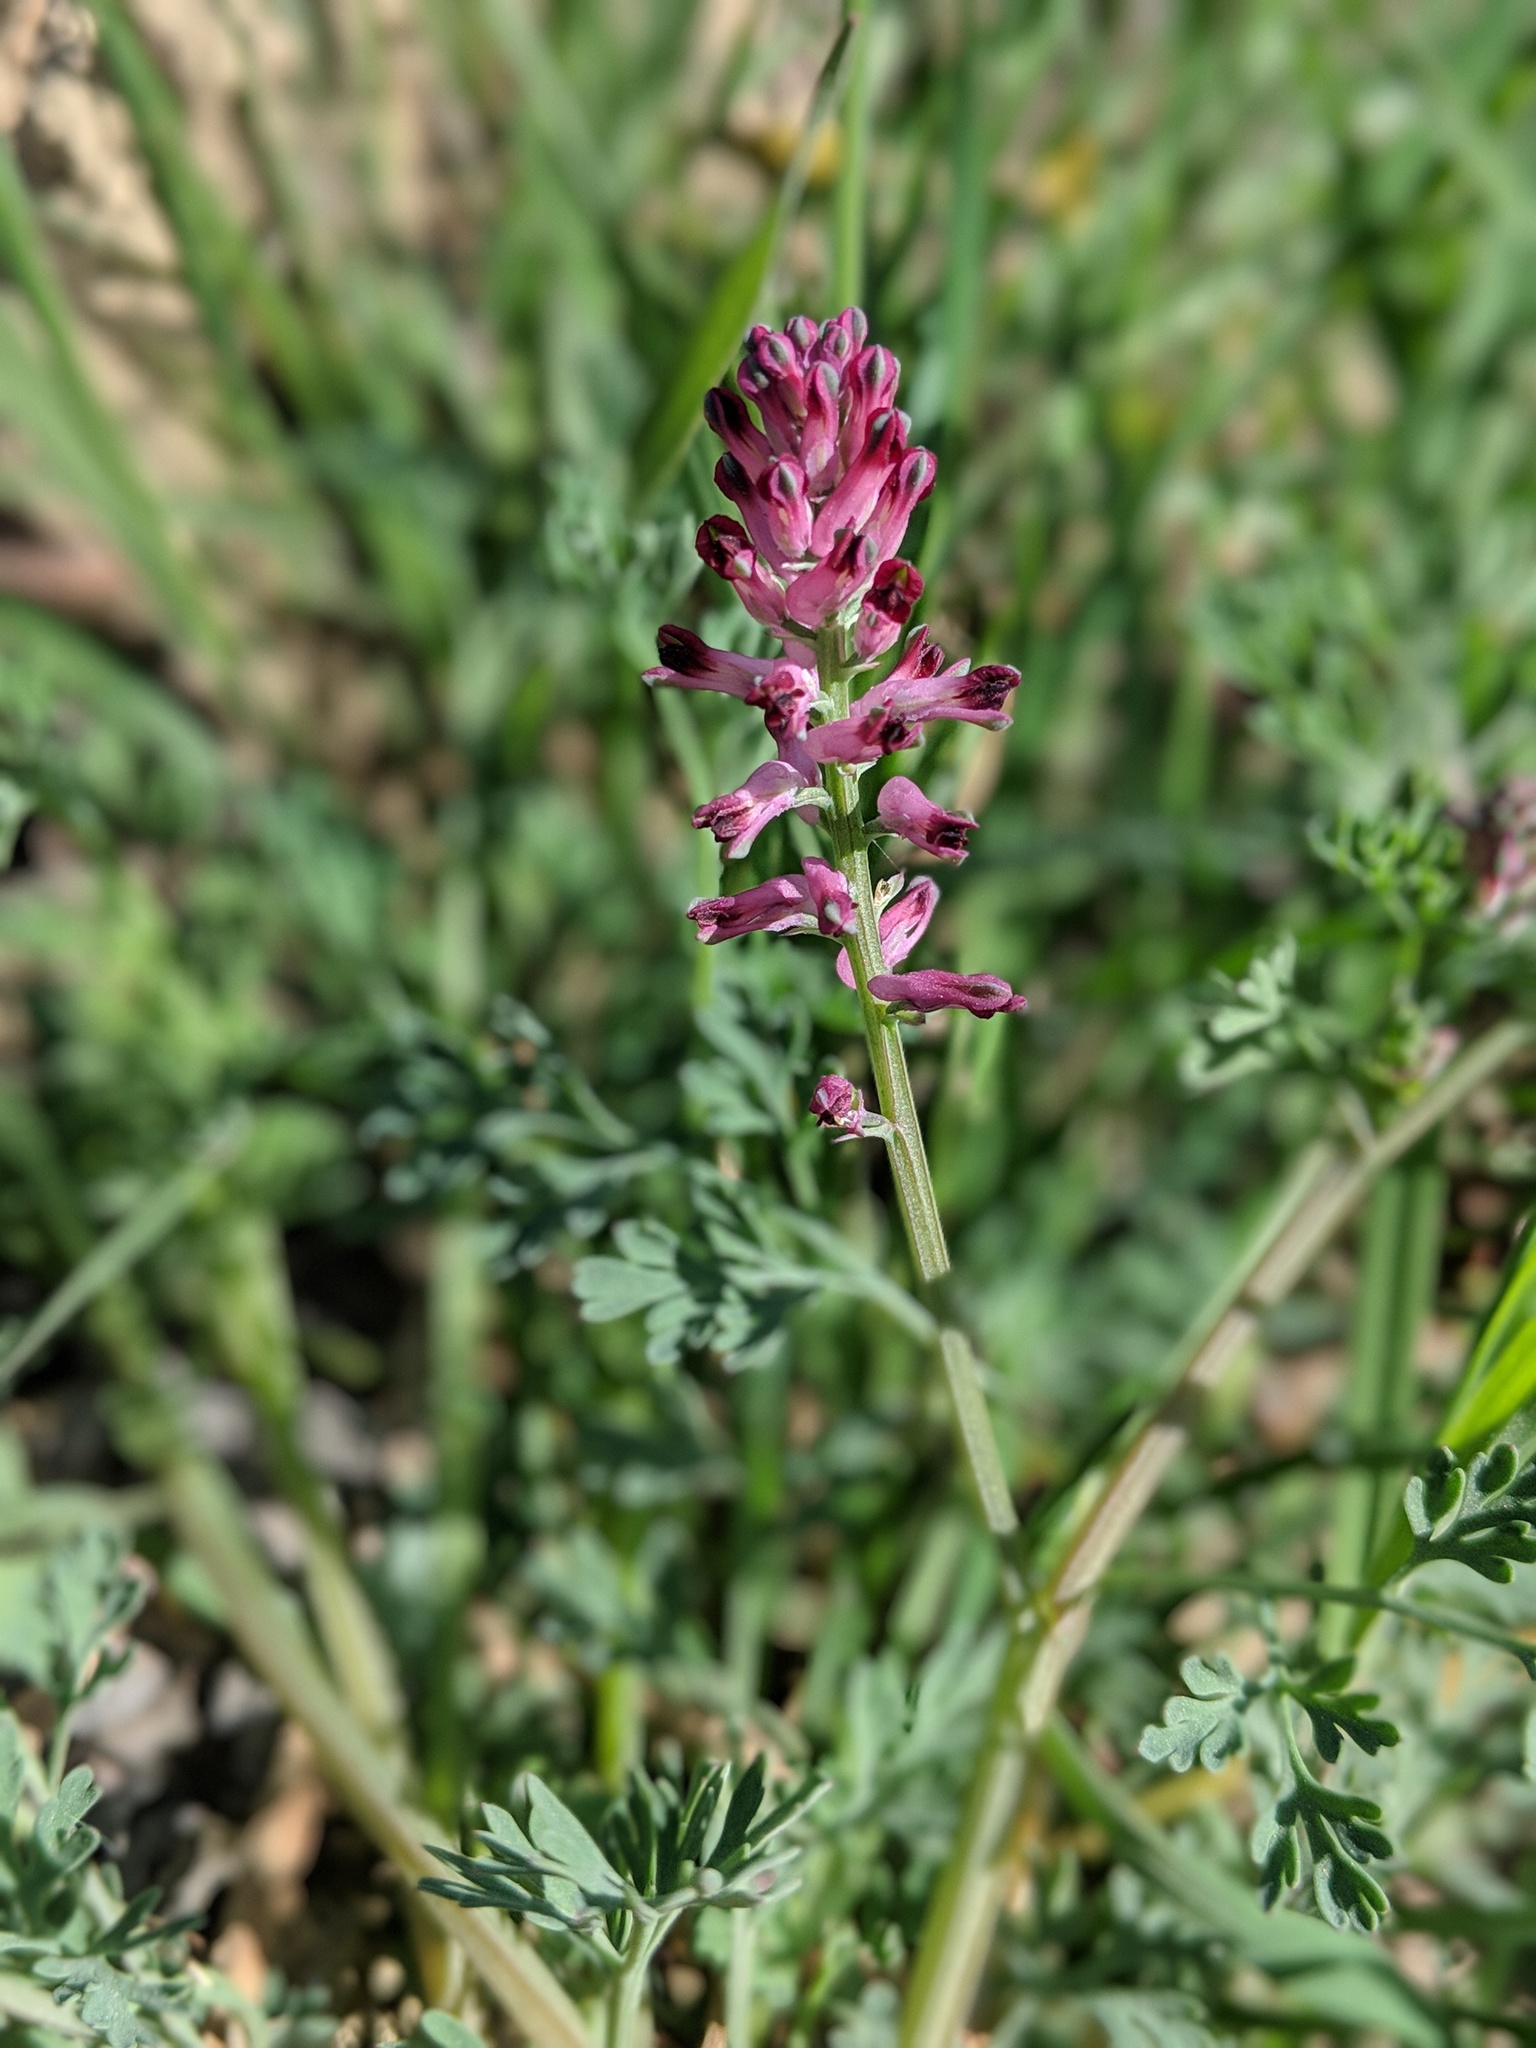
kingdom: Plantae
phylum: Tracheophyta
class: Magnoliopsida
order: Ranunculales
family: Papaveraceae
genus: Fumaria
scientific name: Fumaria officinalis
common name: Common fumitory
